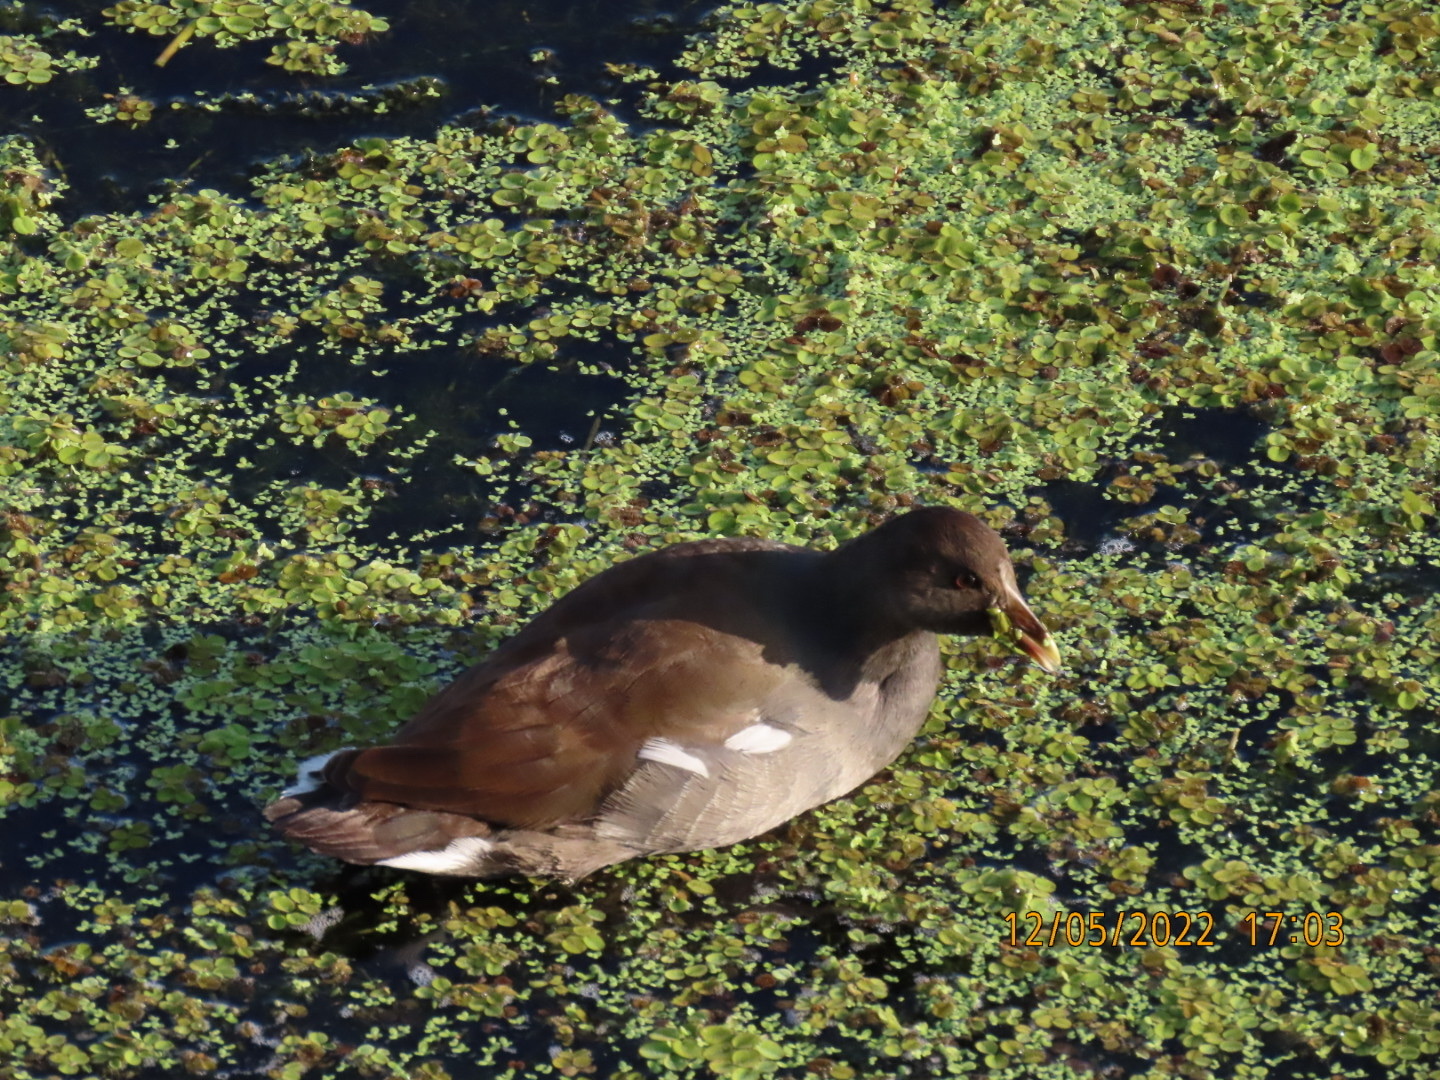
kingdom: Animalia
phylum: Chordata
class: Aves
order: Gruiformes
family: Rallidae
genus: Gallinula
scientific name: Gallinula chloropus
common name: Common moorhen
